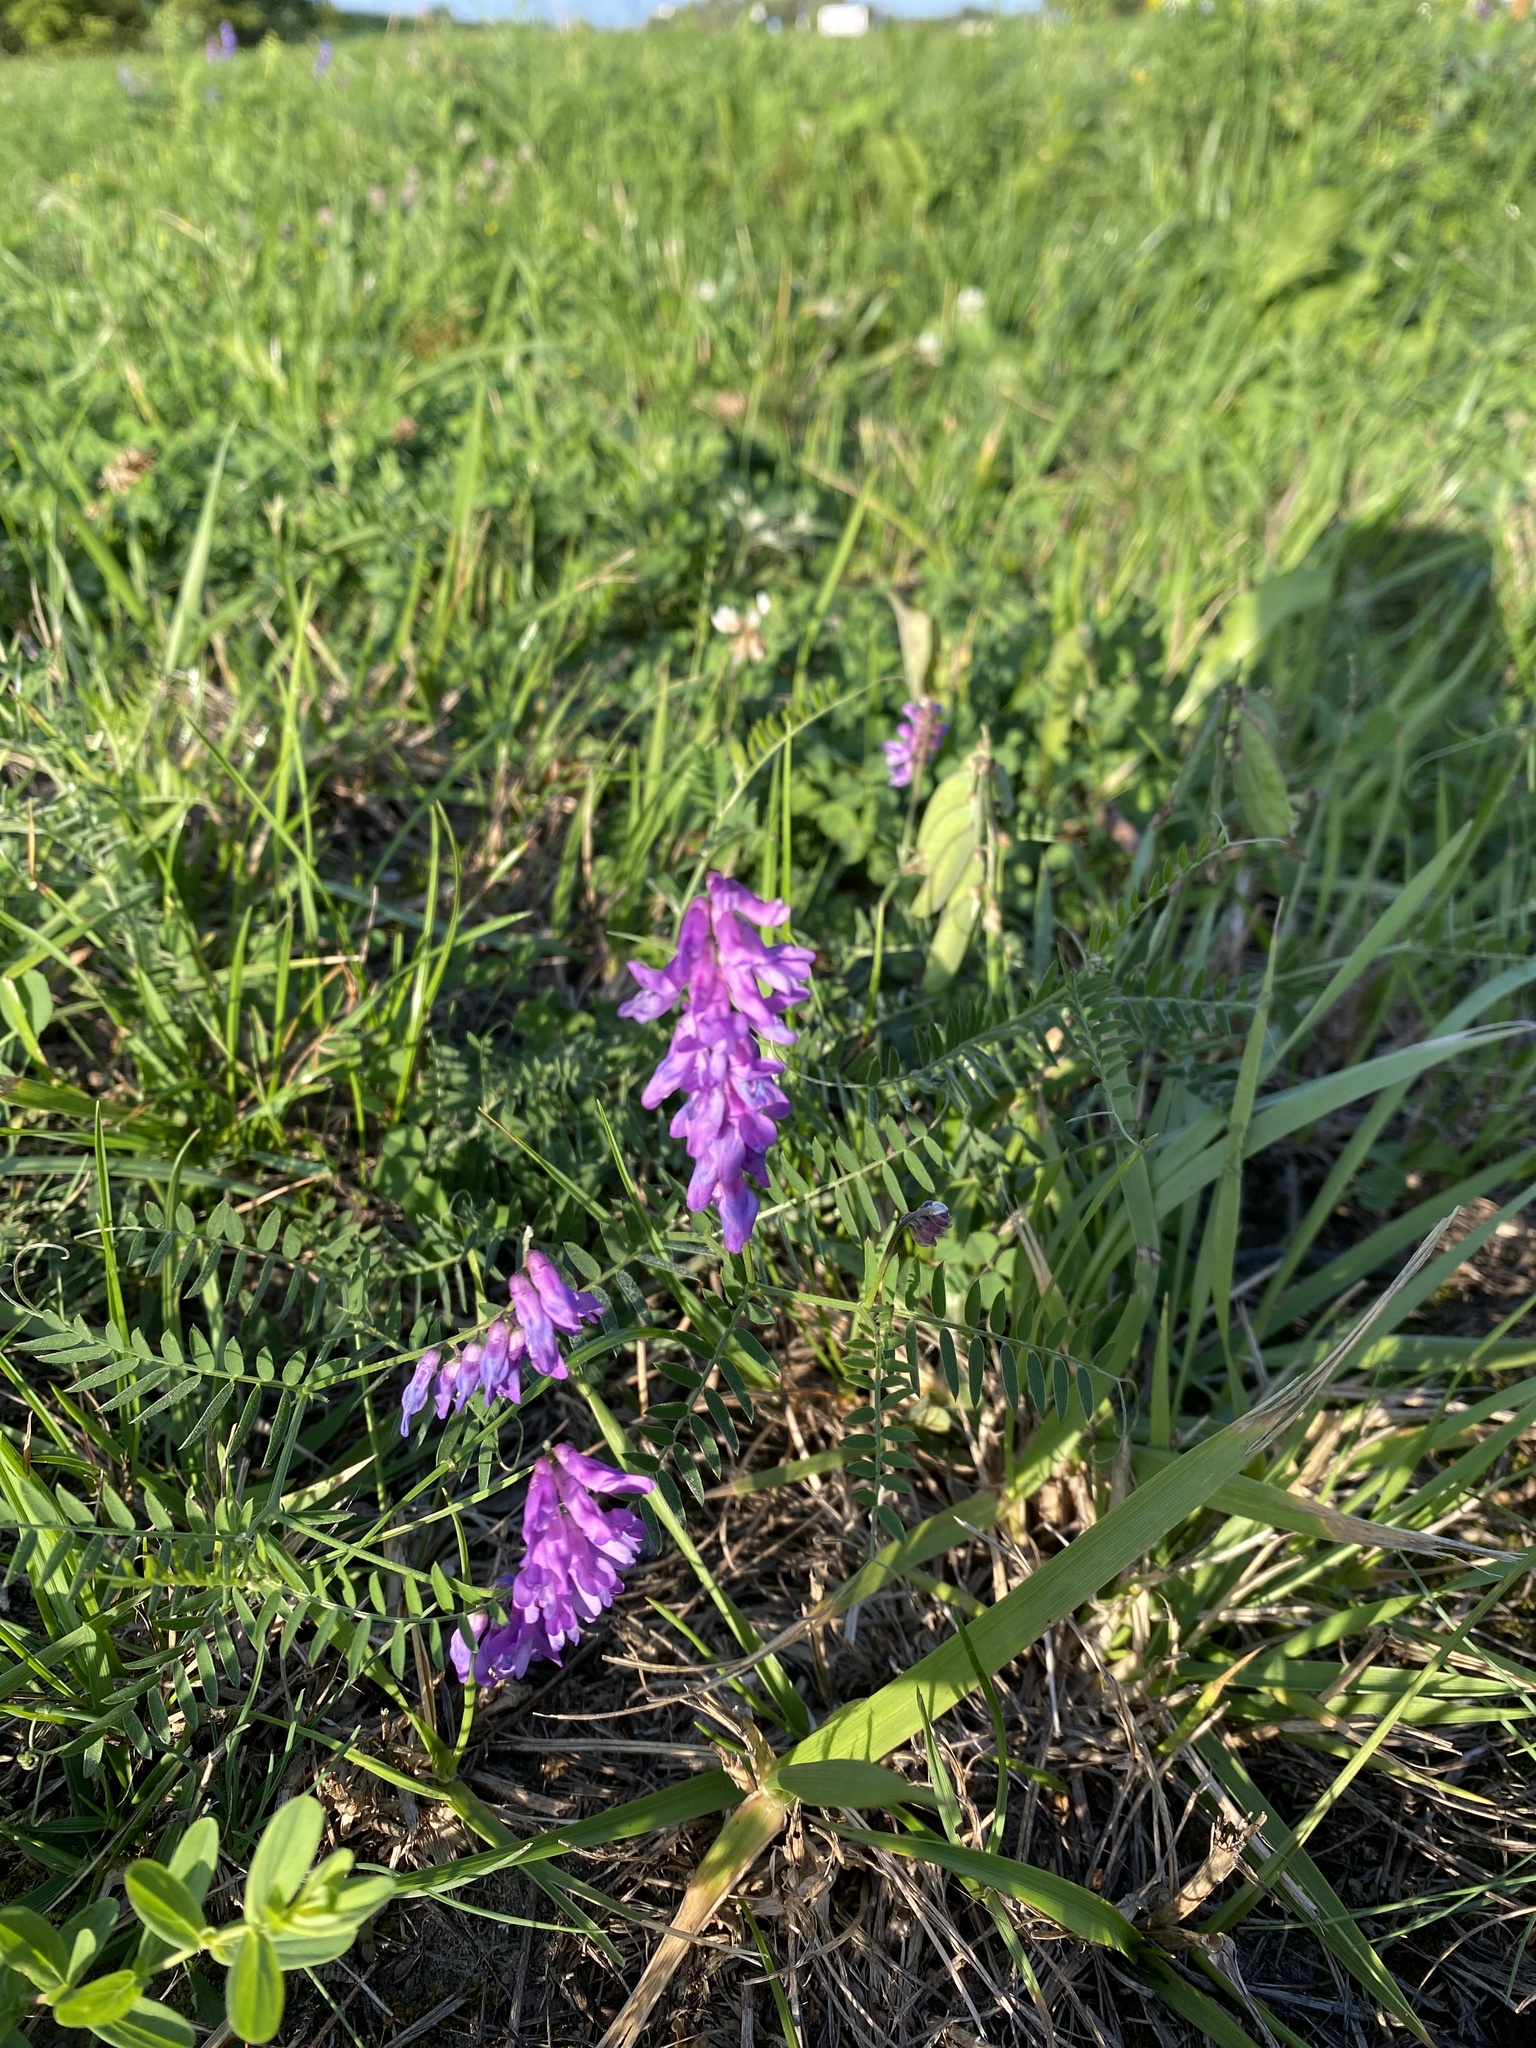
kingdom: Plantae
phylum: Tracheophyta
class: Magnoliopsida
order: Fabales
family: Fabaceae
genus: Vicia
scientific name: Vicia cracca
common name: Bird vetch
